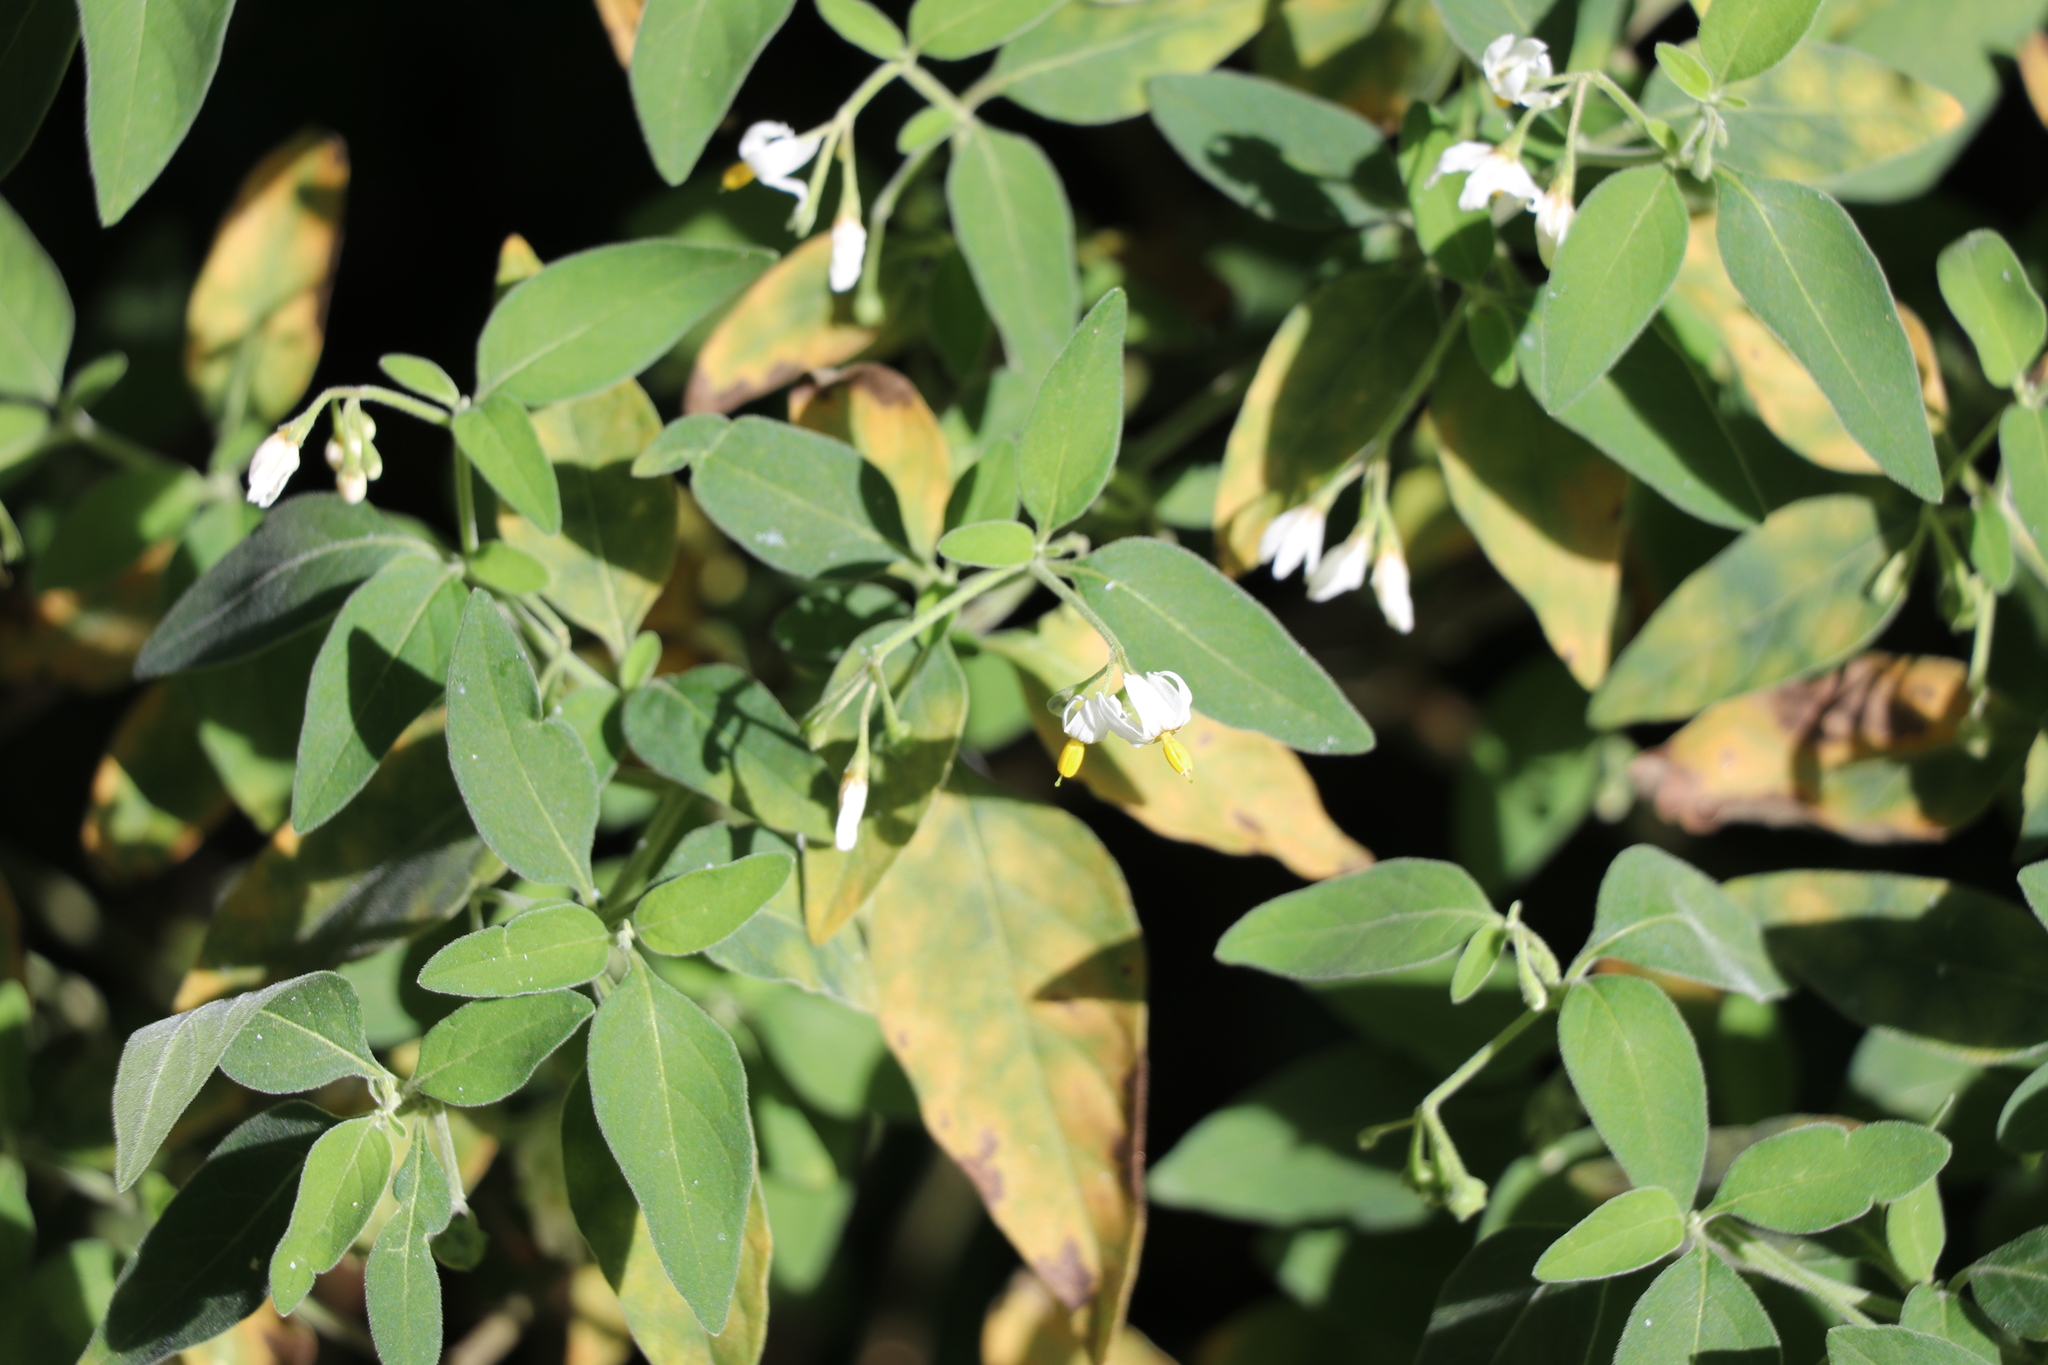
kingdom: Plantae
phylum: Tracheophyta
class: Magnoliopsida
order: Solanales
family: Solanaceae
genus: Solanum
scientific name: Solanum chenopodioides
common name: Tall nightshade
